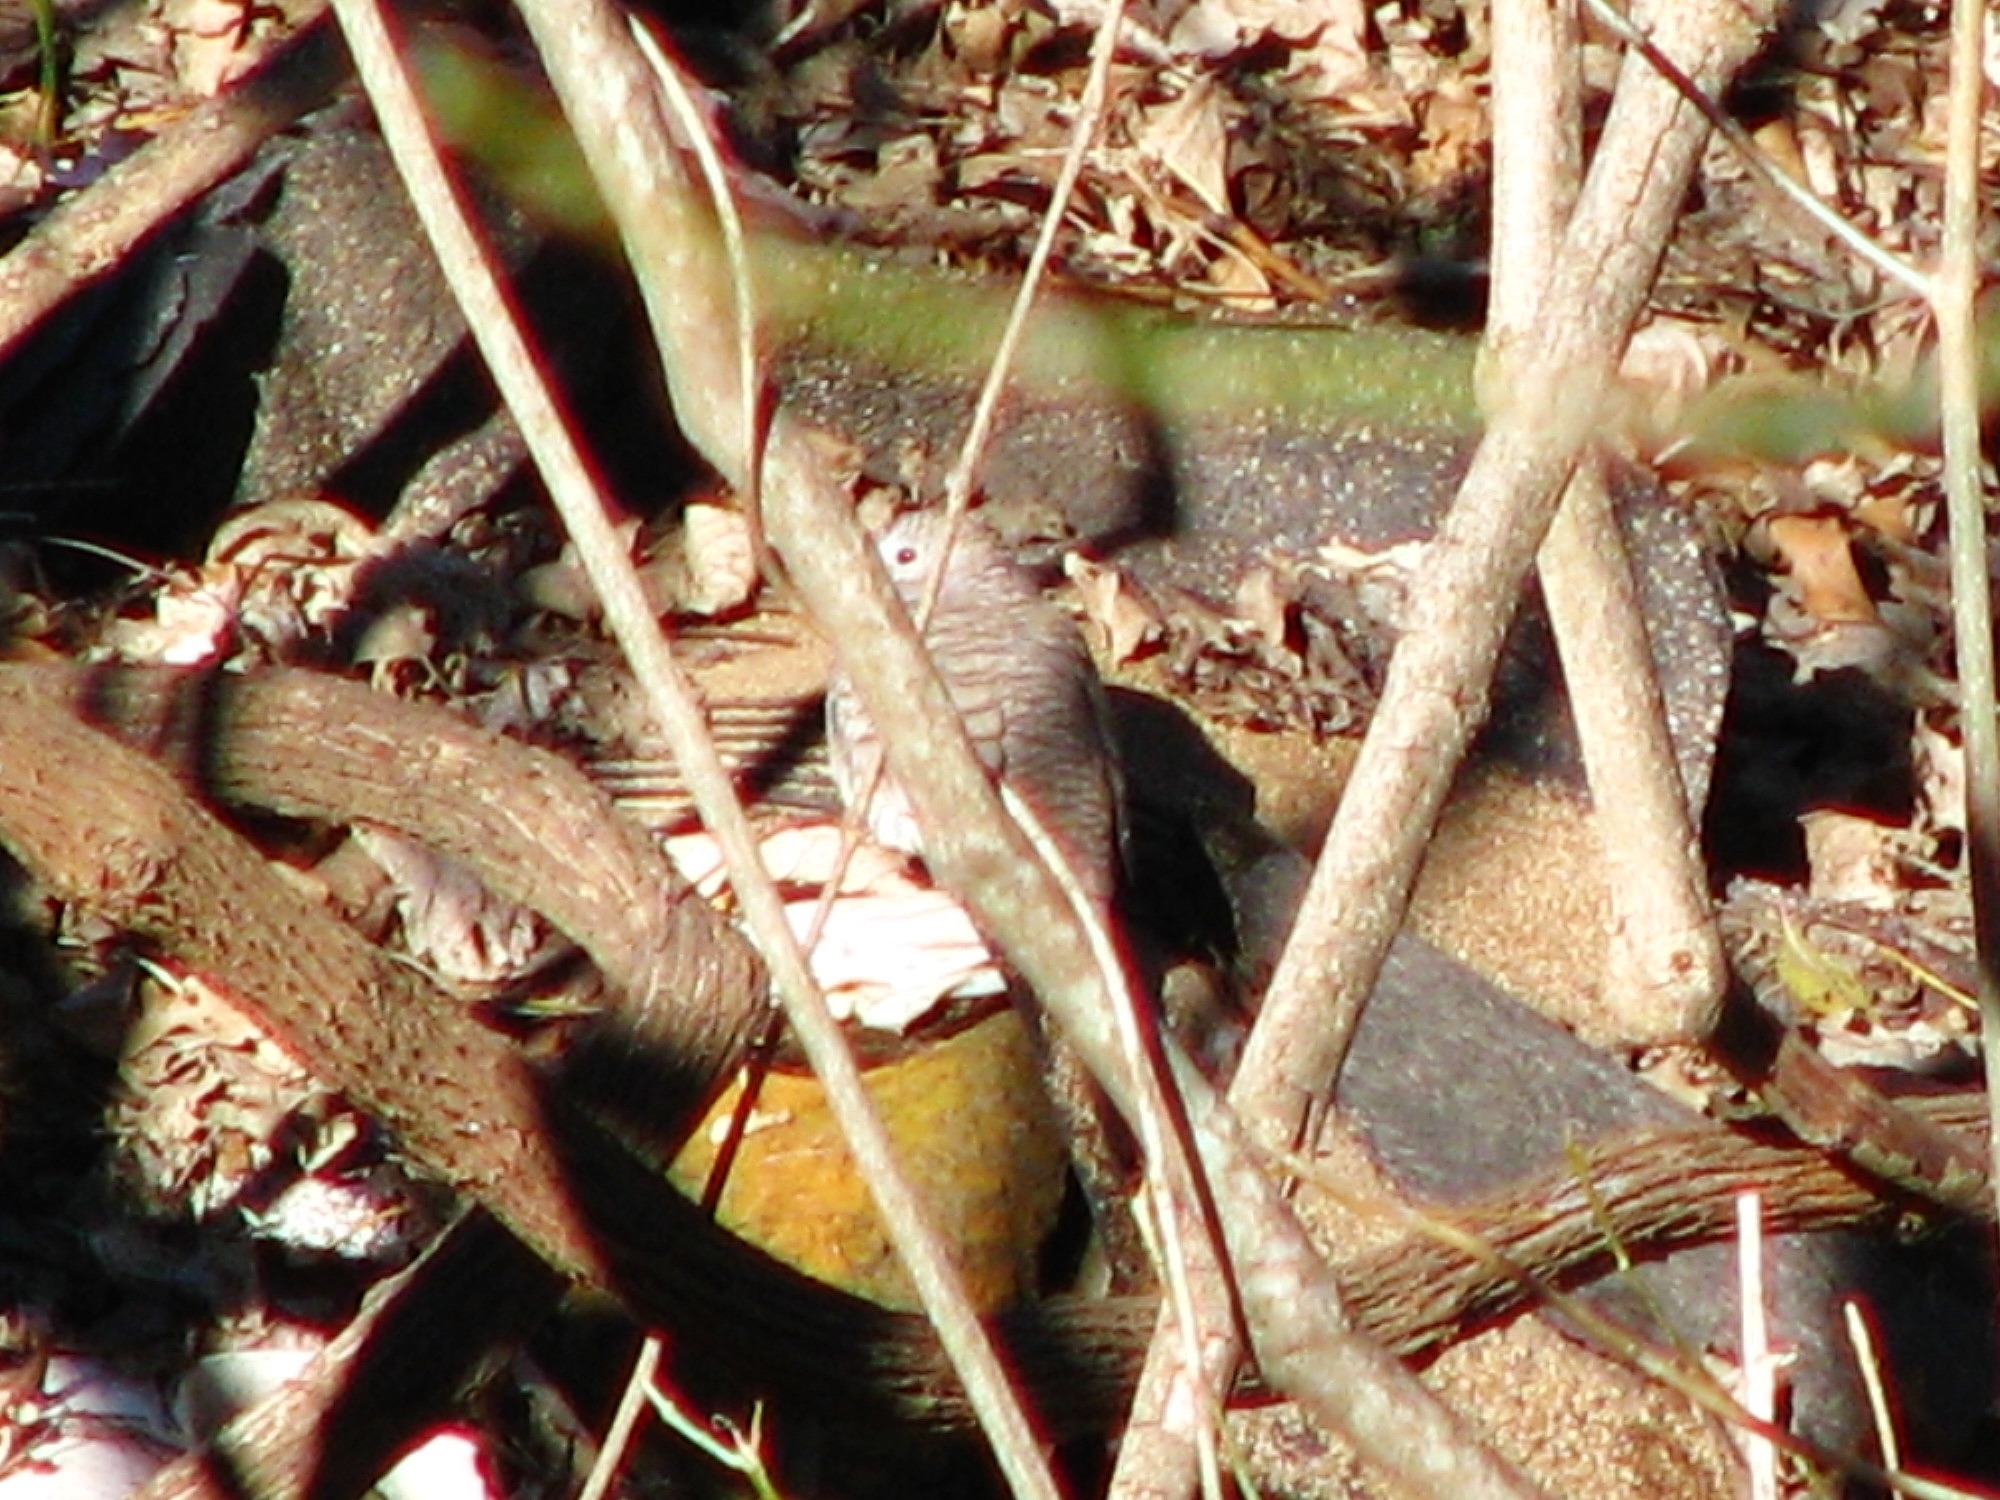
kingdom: Animalia
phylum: Chordata
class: Aves
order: Columbiformes
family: Columbidae
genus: Columbina
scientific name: Columbina inca
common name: Inca dove
